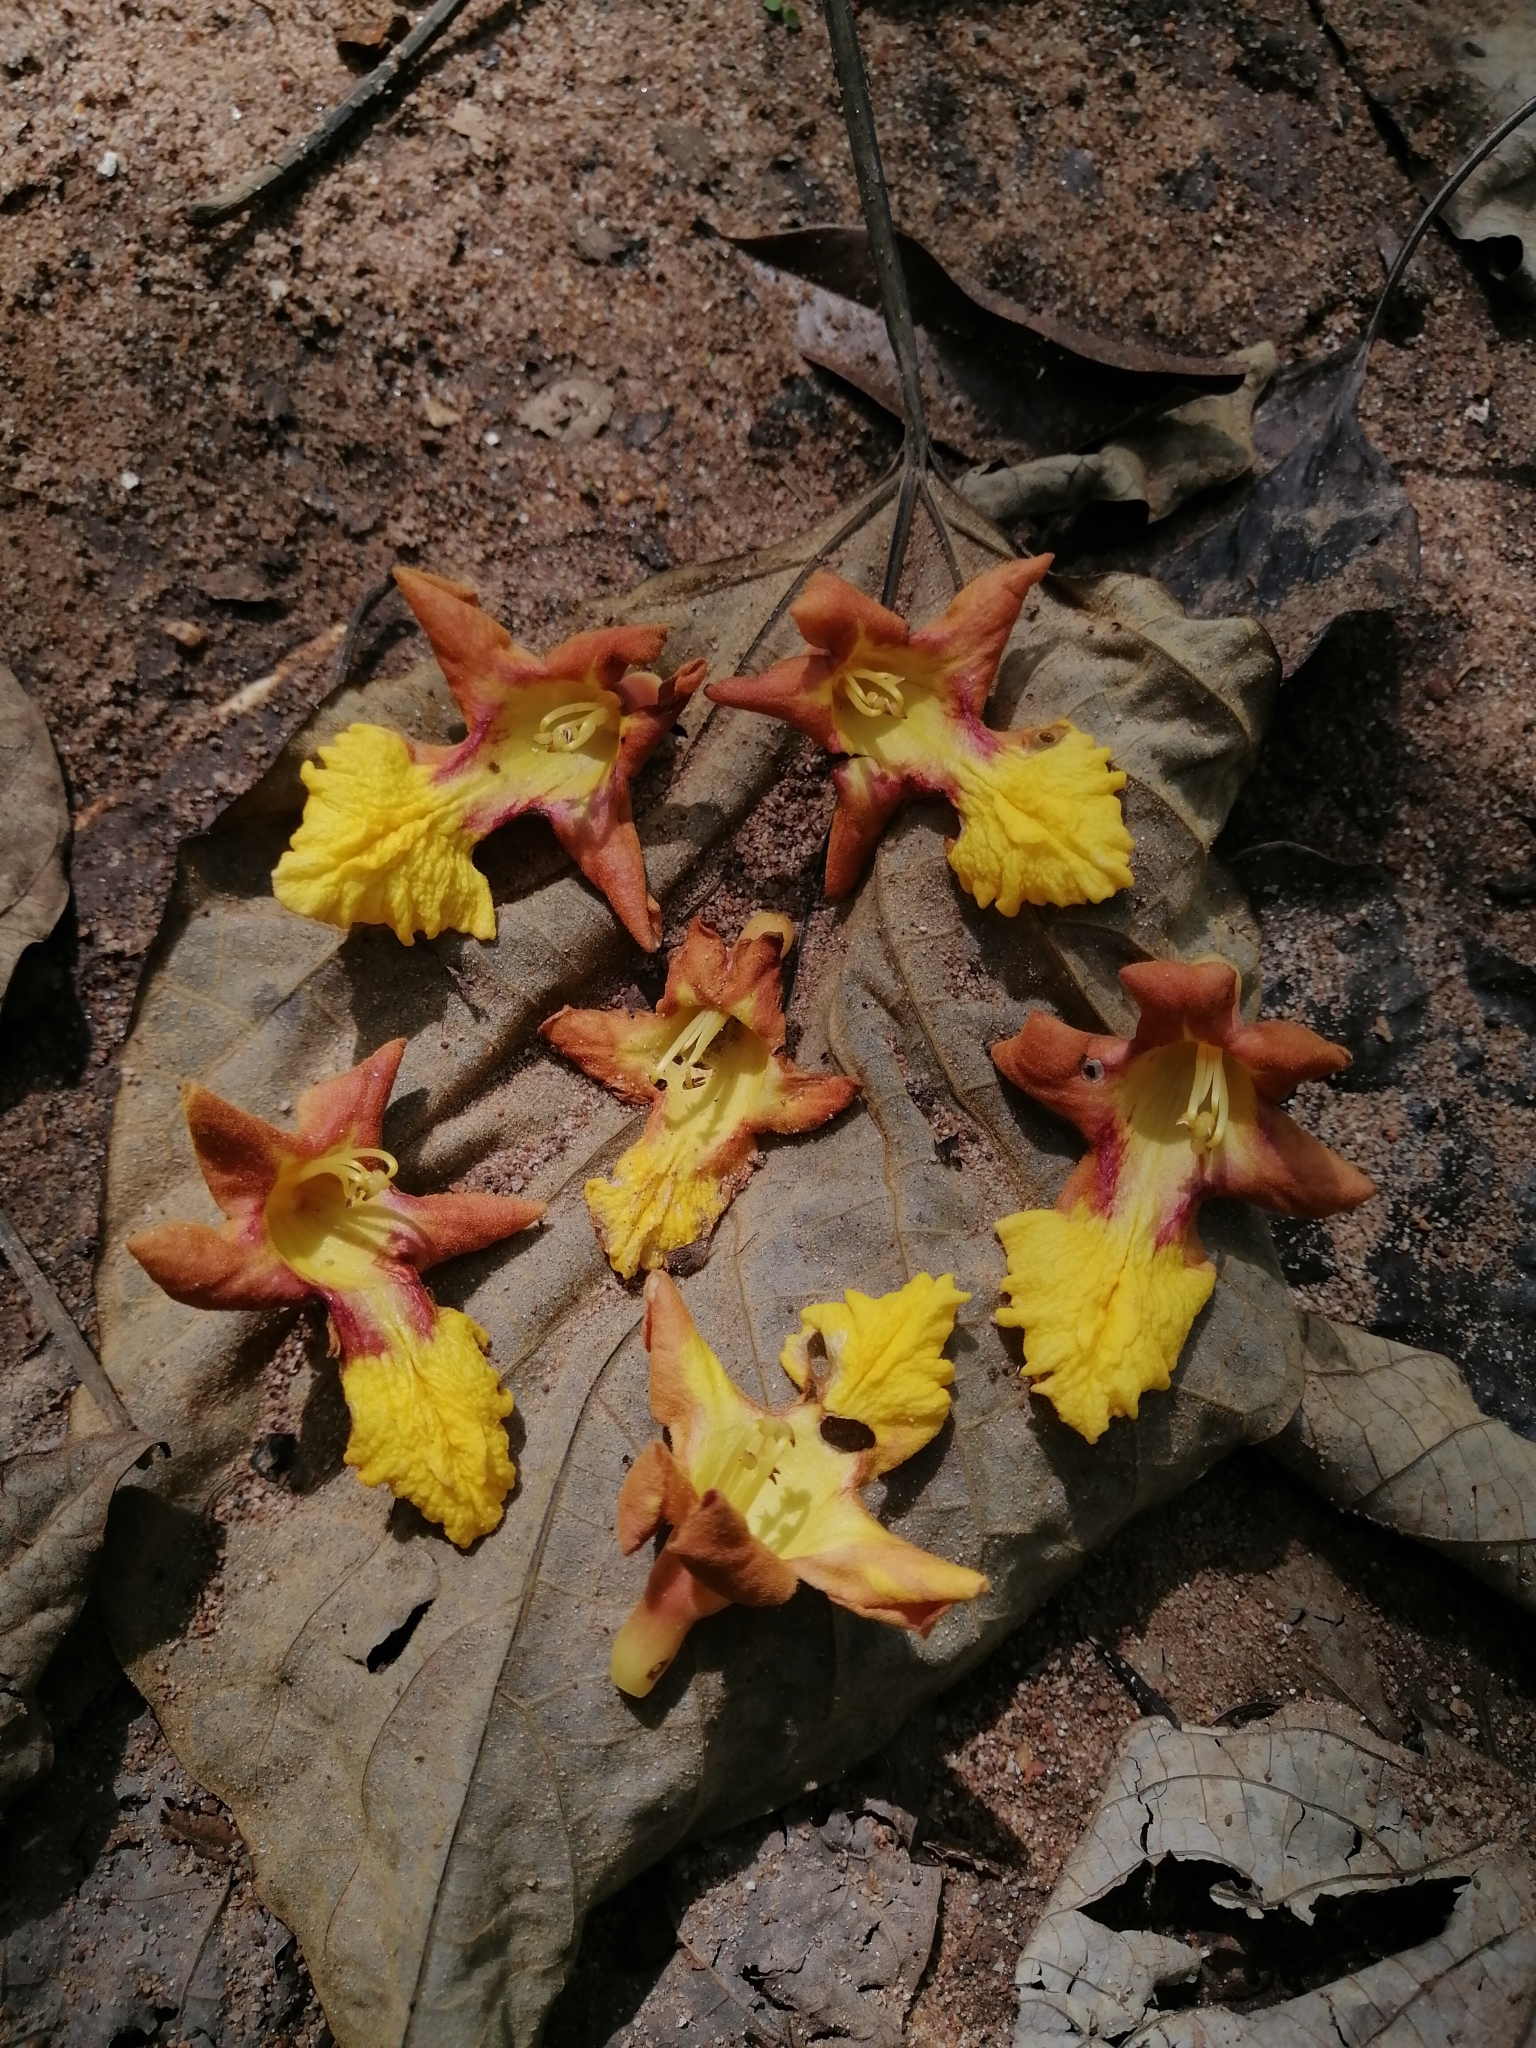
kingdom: Plantae
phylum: Tracheophyta
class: Magnoliopsida
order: Lamiales
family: Lamiaceae
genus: Gmelina
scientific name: Gmelina arborea
